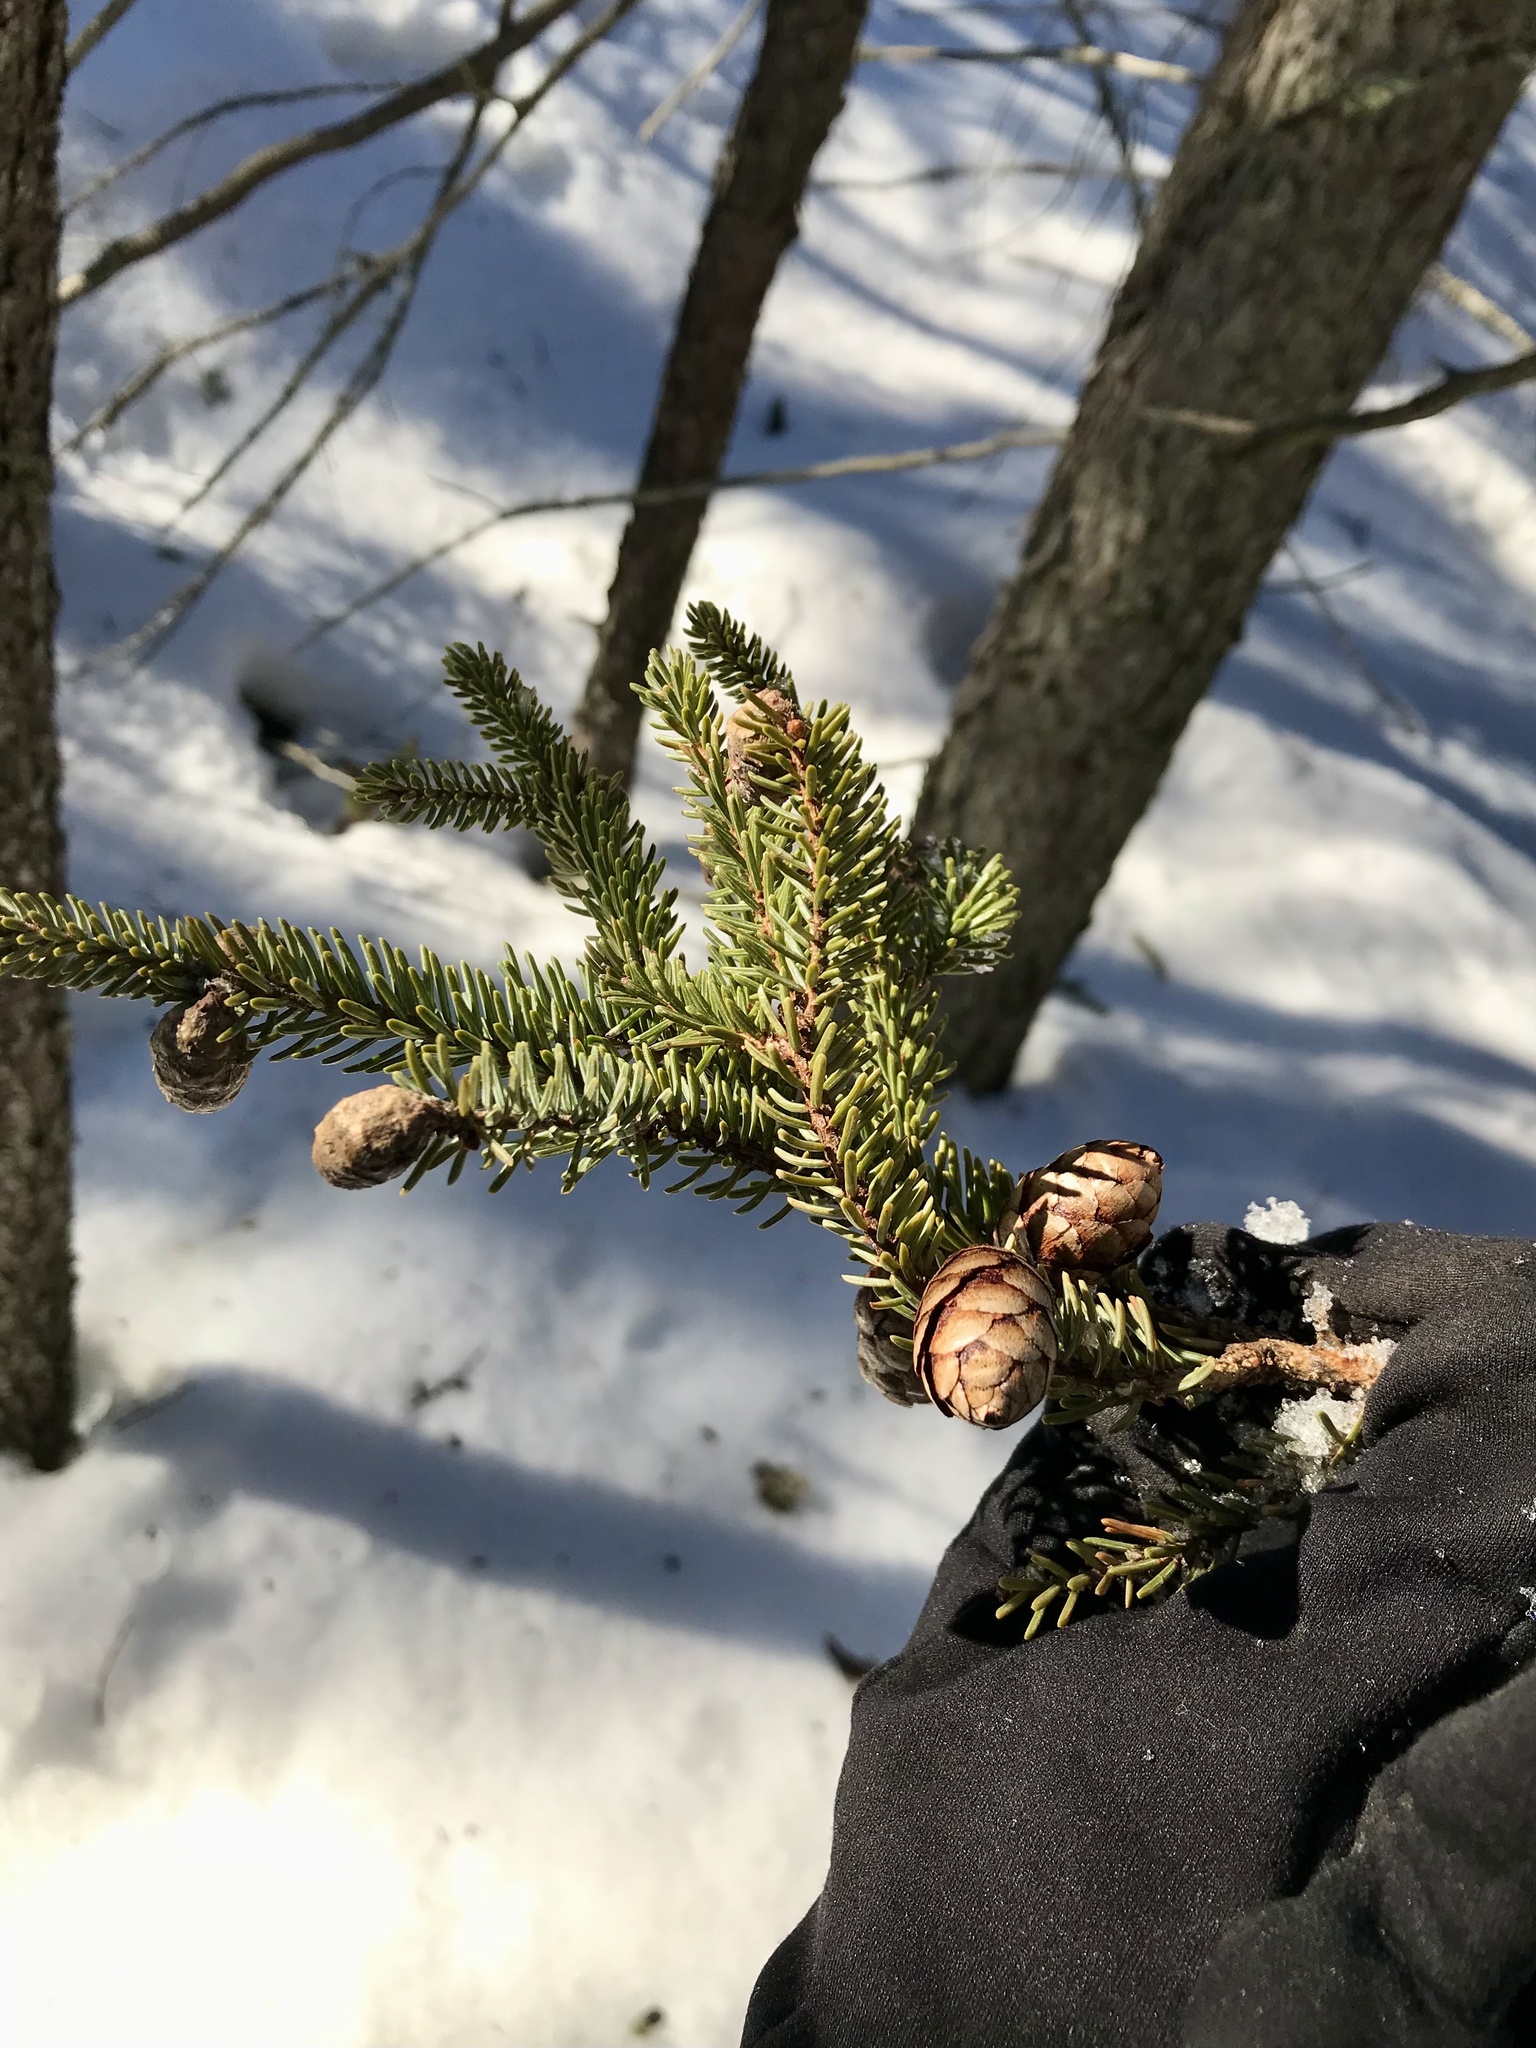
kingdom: Plantae
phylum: Tracheophyta
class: Pinopsida
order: Pinales
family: Pinaceae
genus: Picea
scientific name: Picea mariana
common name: Black spruce
